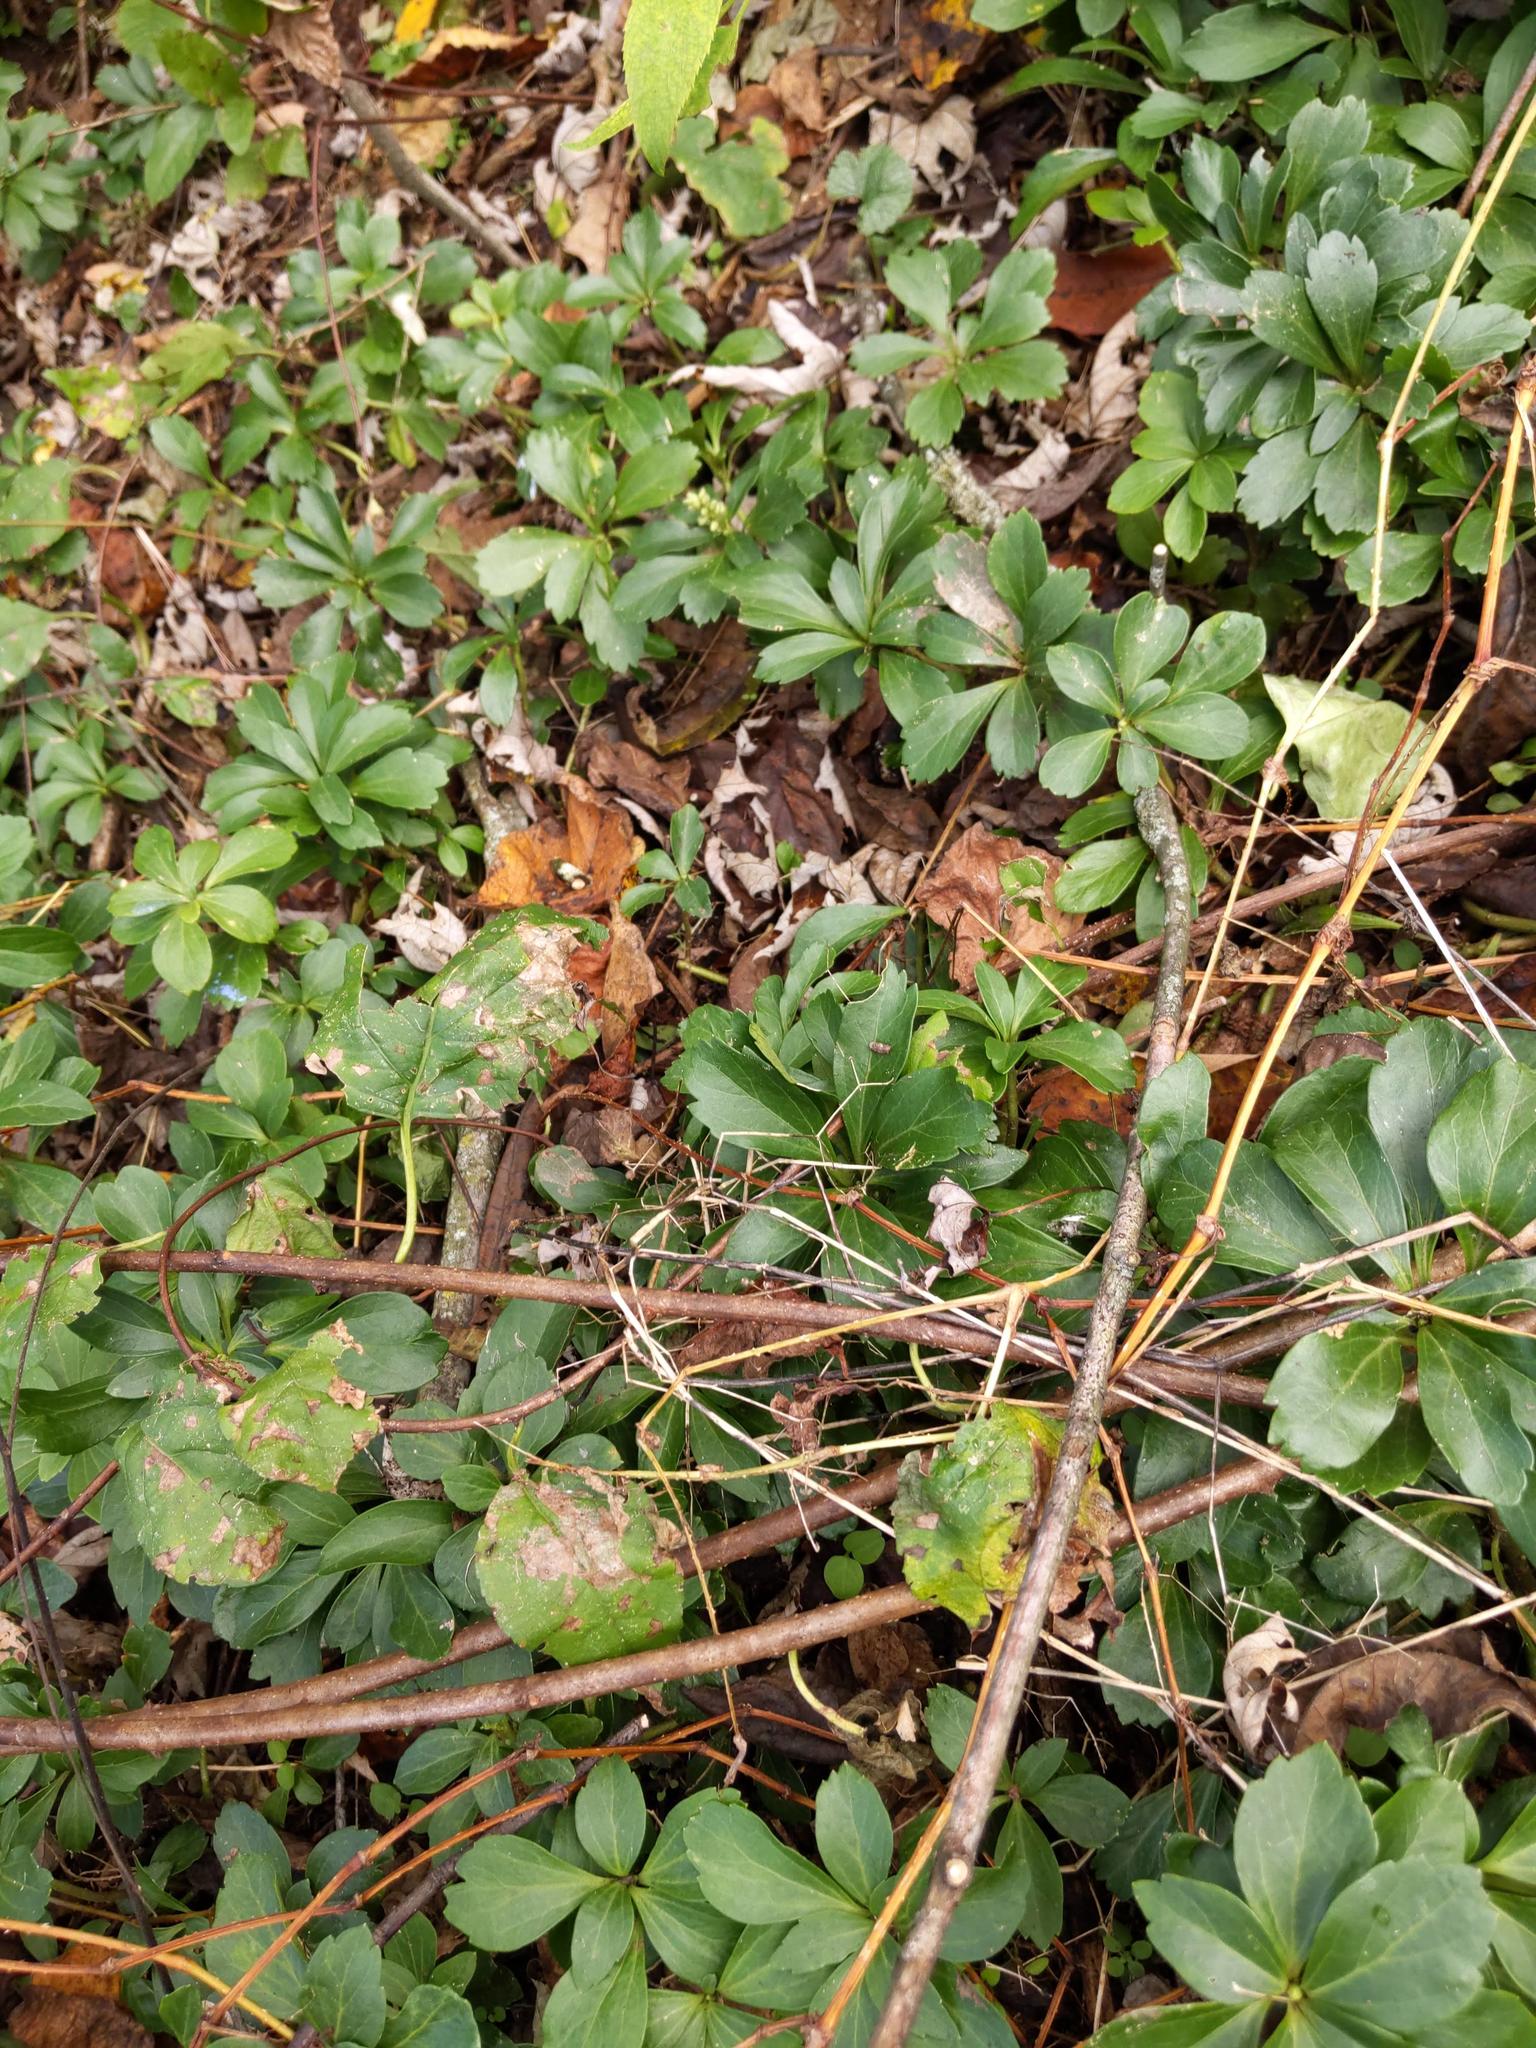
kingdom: Plantae
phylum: Tracheophyta
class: Magnoliopsida
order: Buxales
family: Buxaceae
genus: Pachysandra
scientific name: Pachysandra terminalis
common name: Japanese pachysandra
